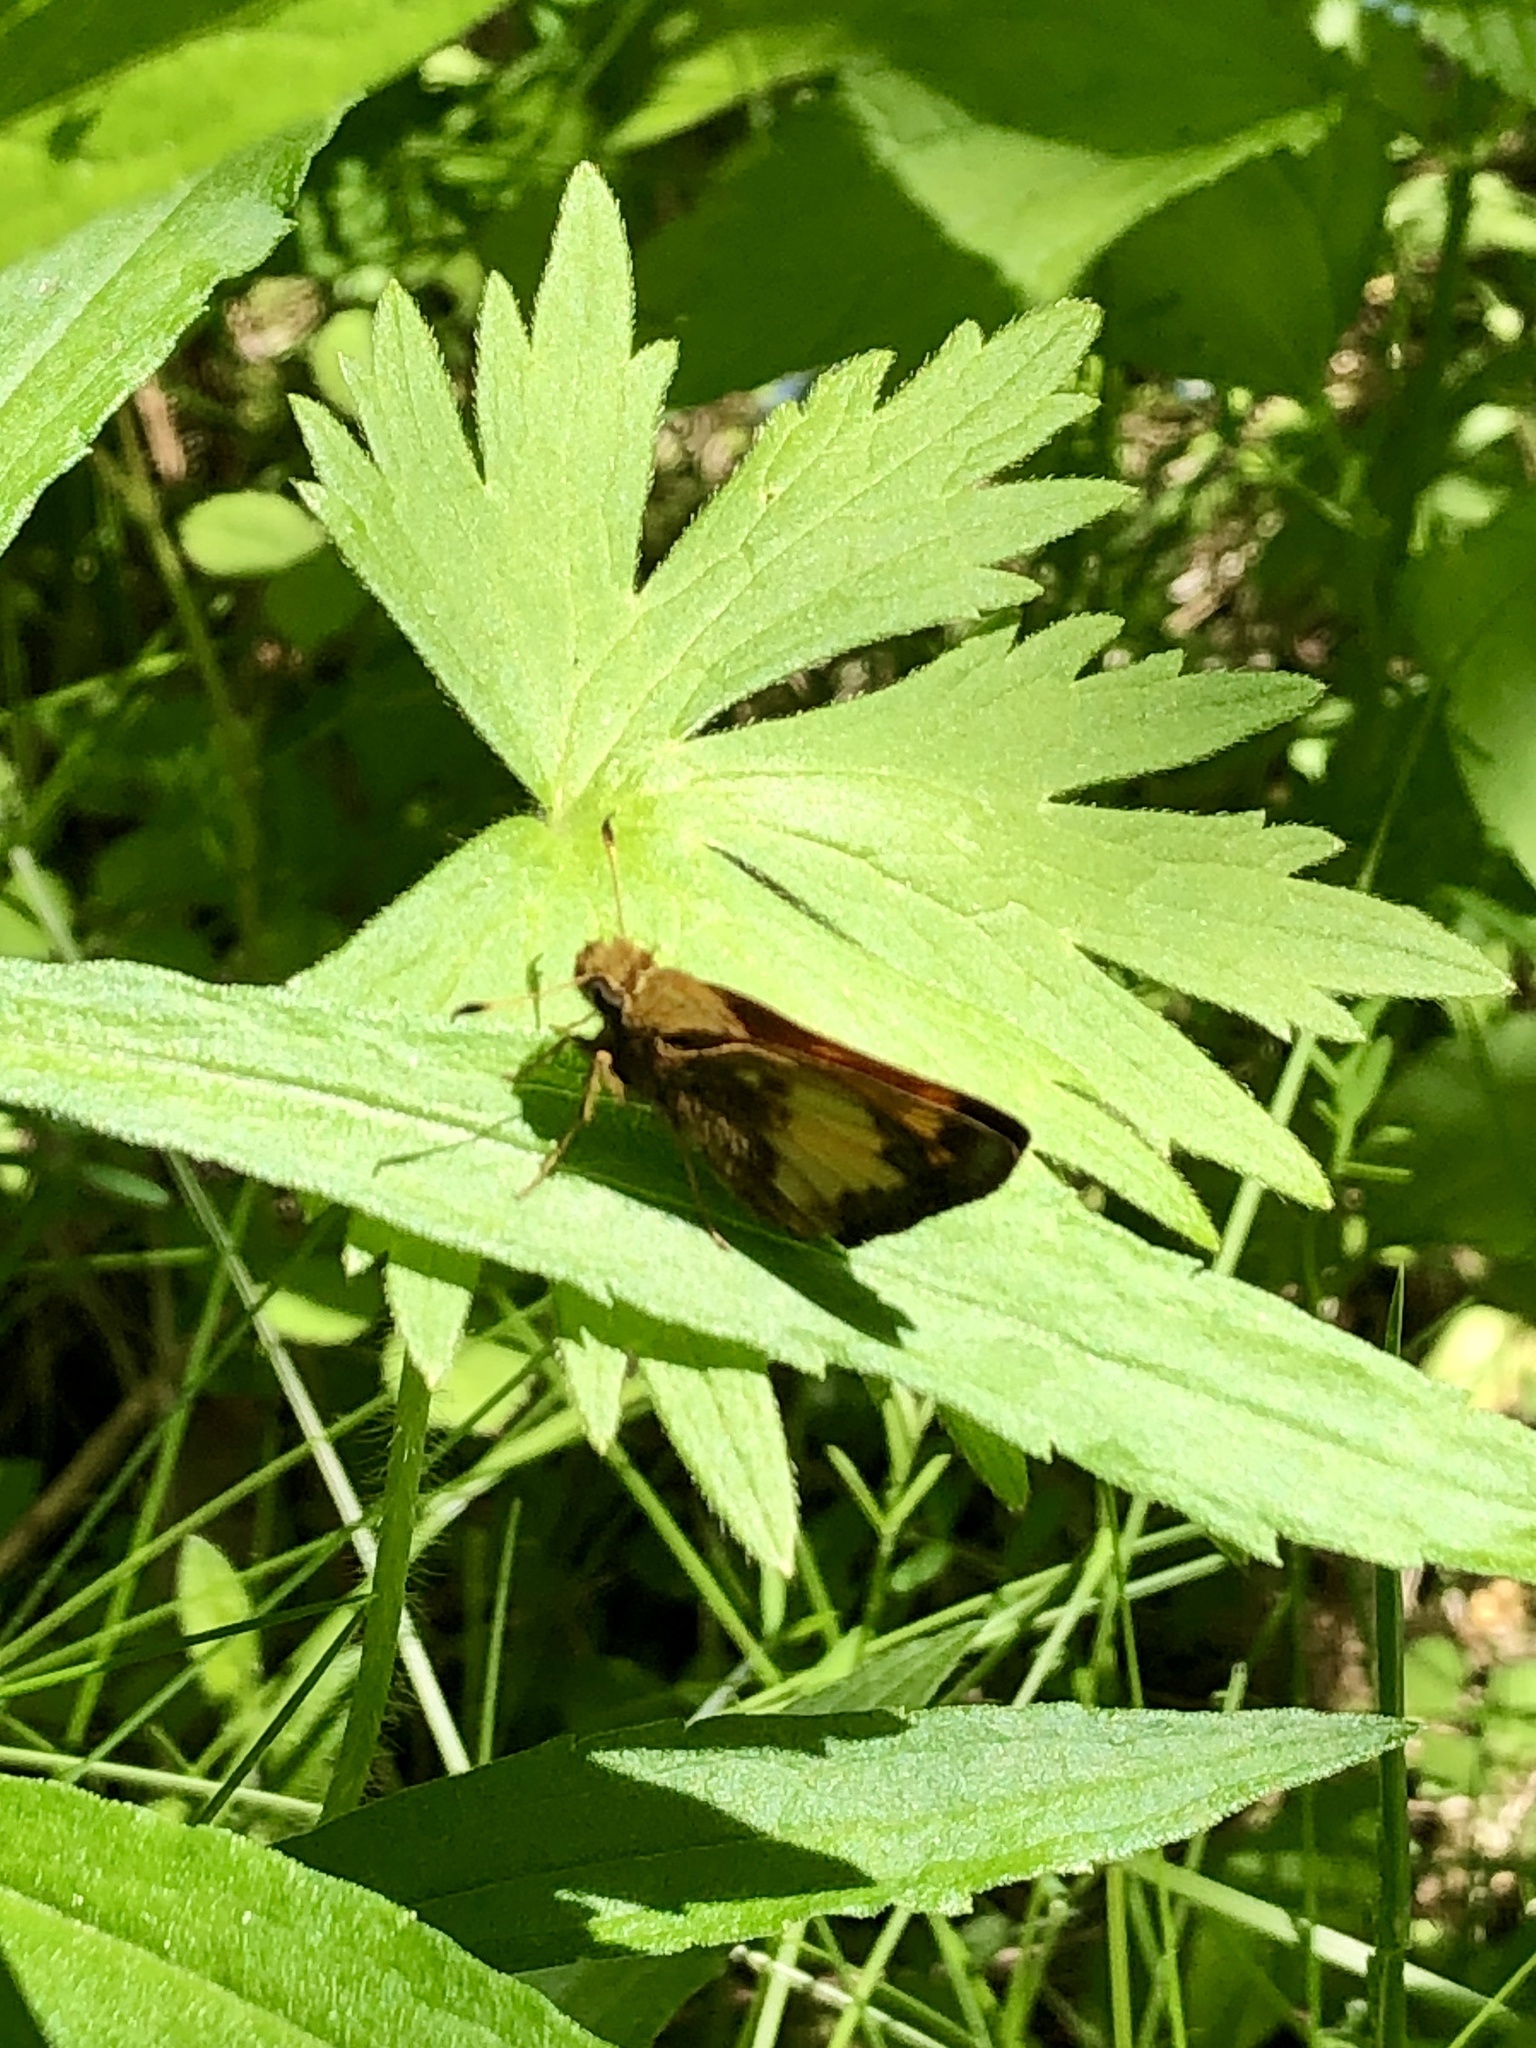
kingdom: Animalia
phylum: Arthropoda
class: Insecta
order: Lepidoptera
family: Hesperiidae
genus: Lon
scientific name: Lon hobomok
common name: Hobomok skipper
